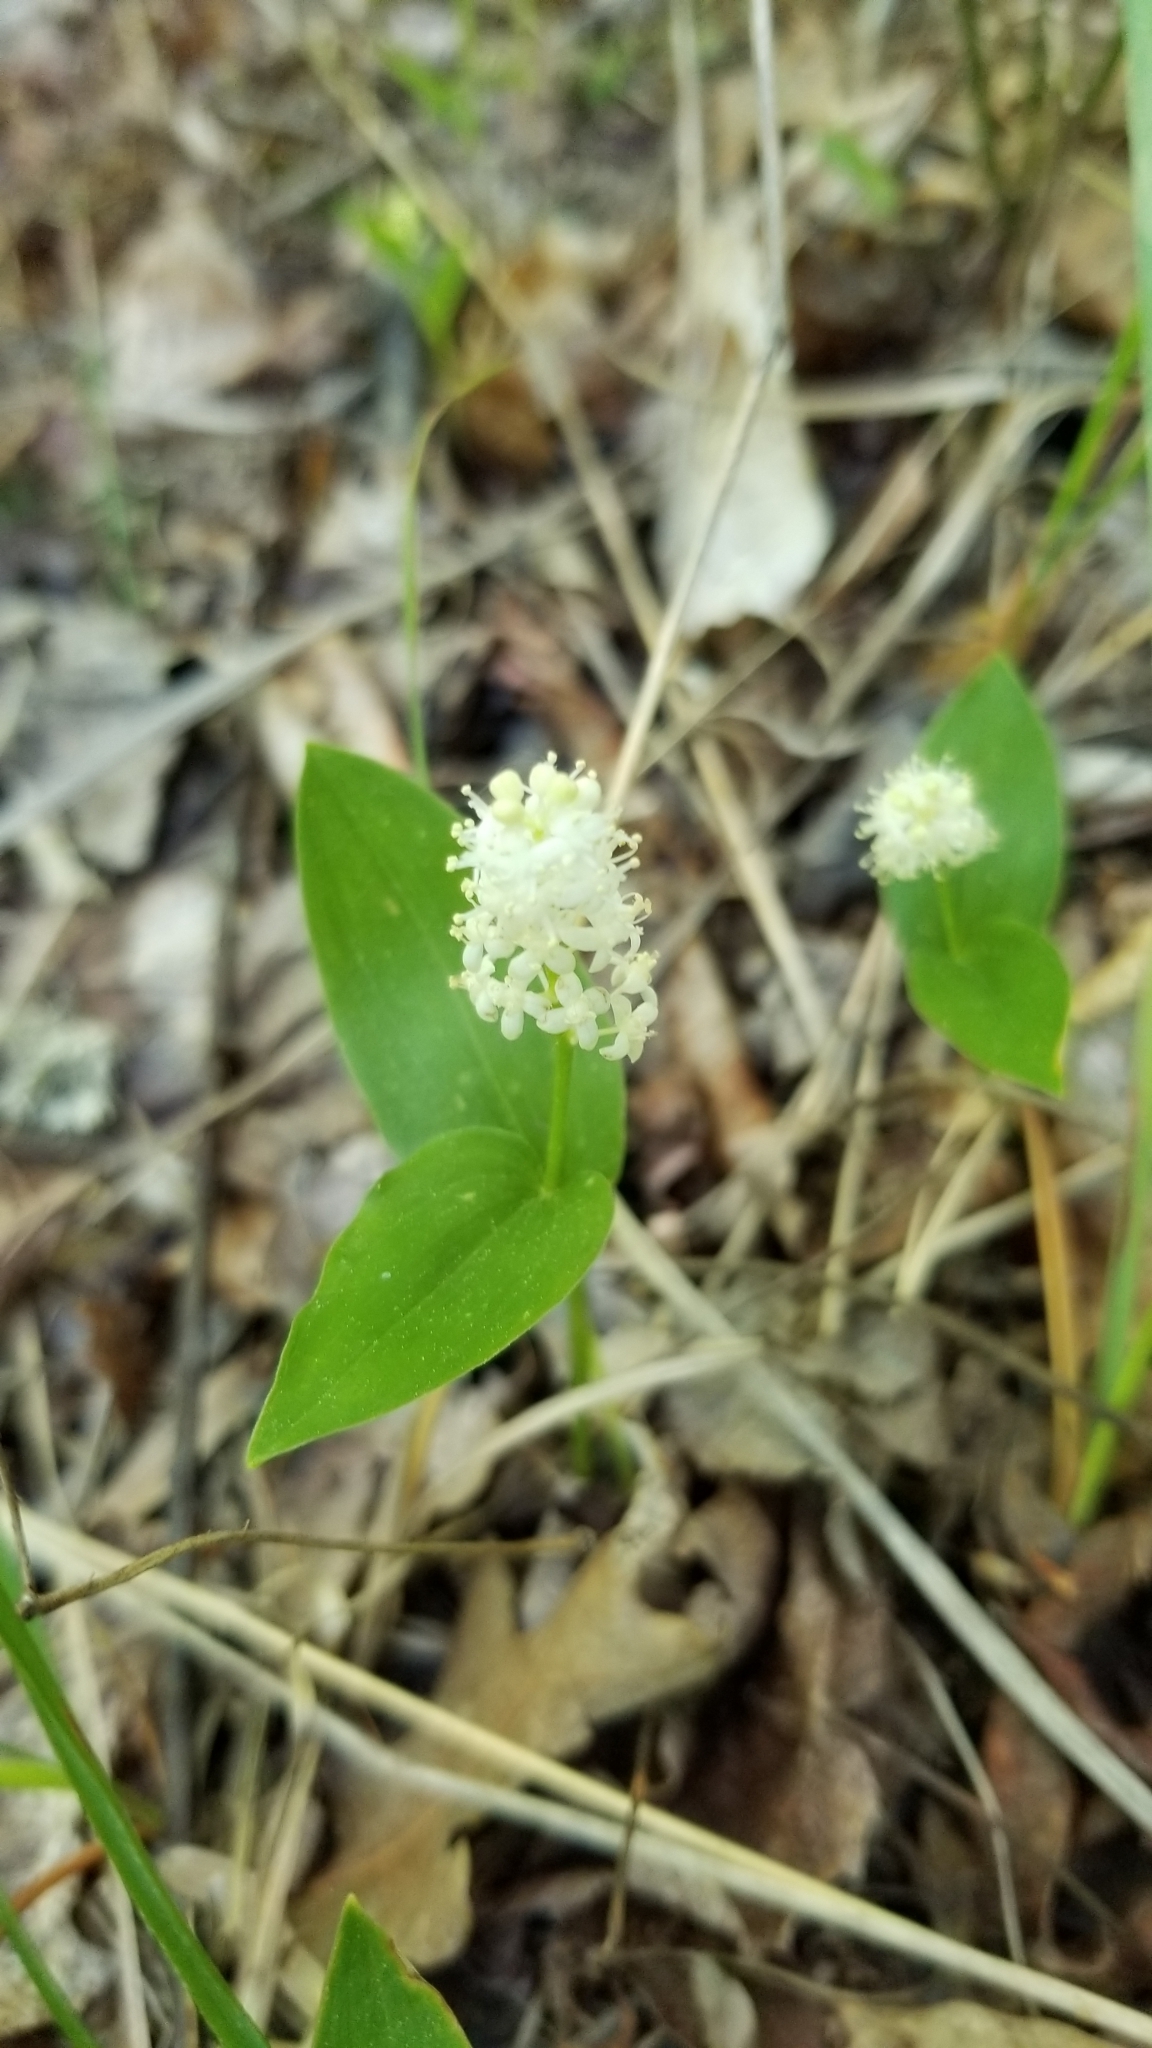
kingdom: Plantae
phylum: Tracheophyta
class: Liliopsida
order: Asparagales
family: Asparagaceae
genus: Maianthemum
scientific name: Maianthemum canadense
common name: False lily-of-the-valley
